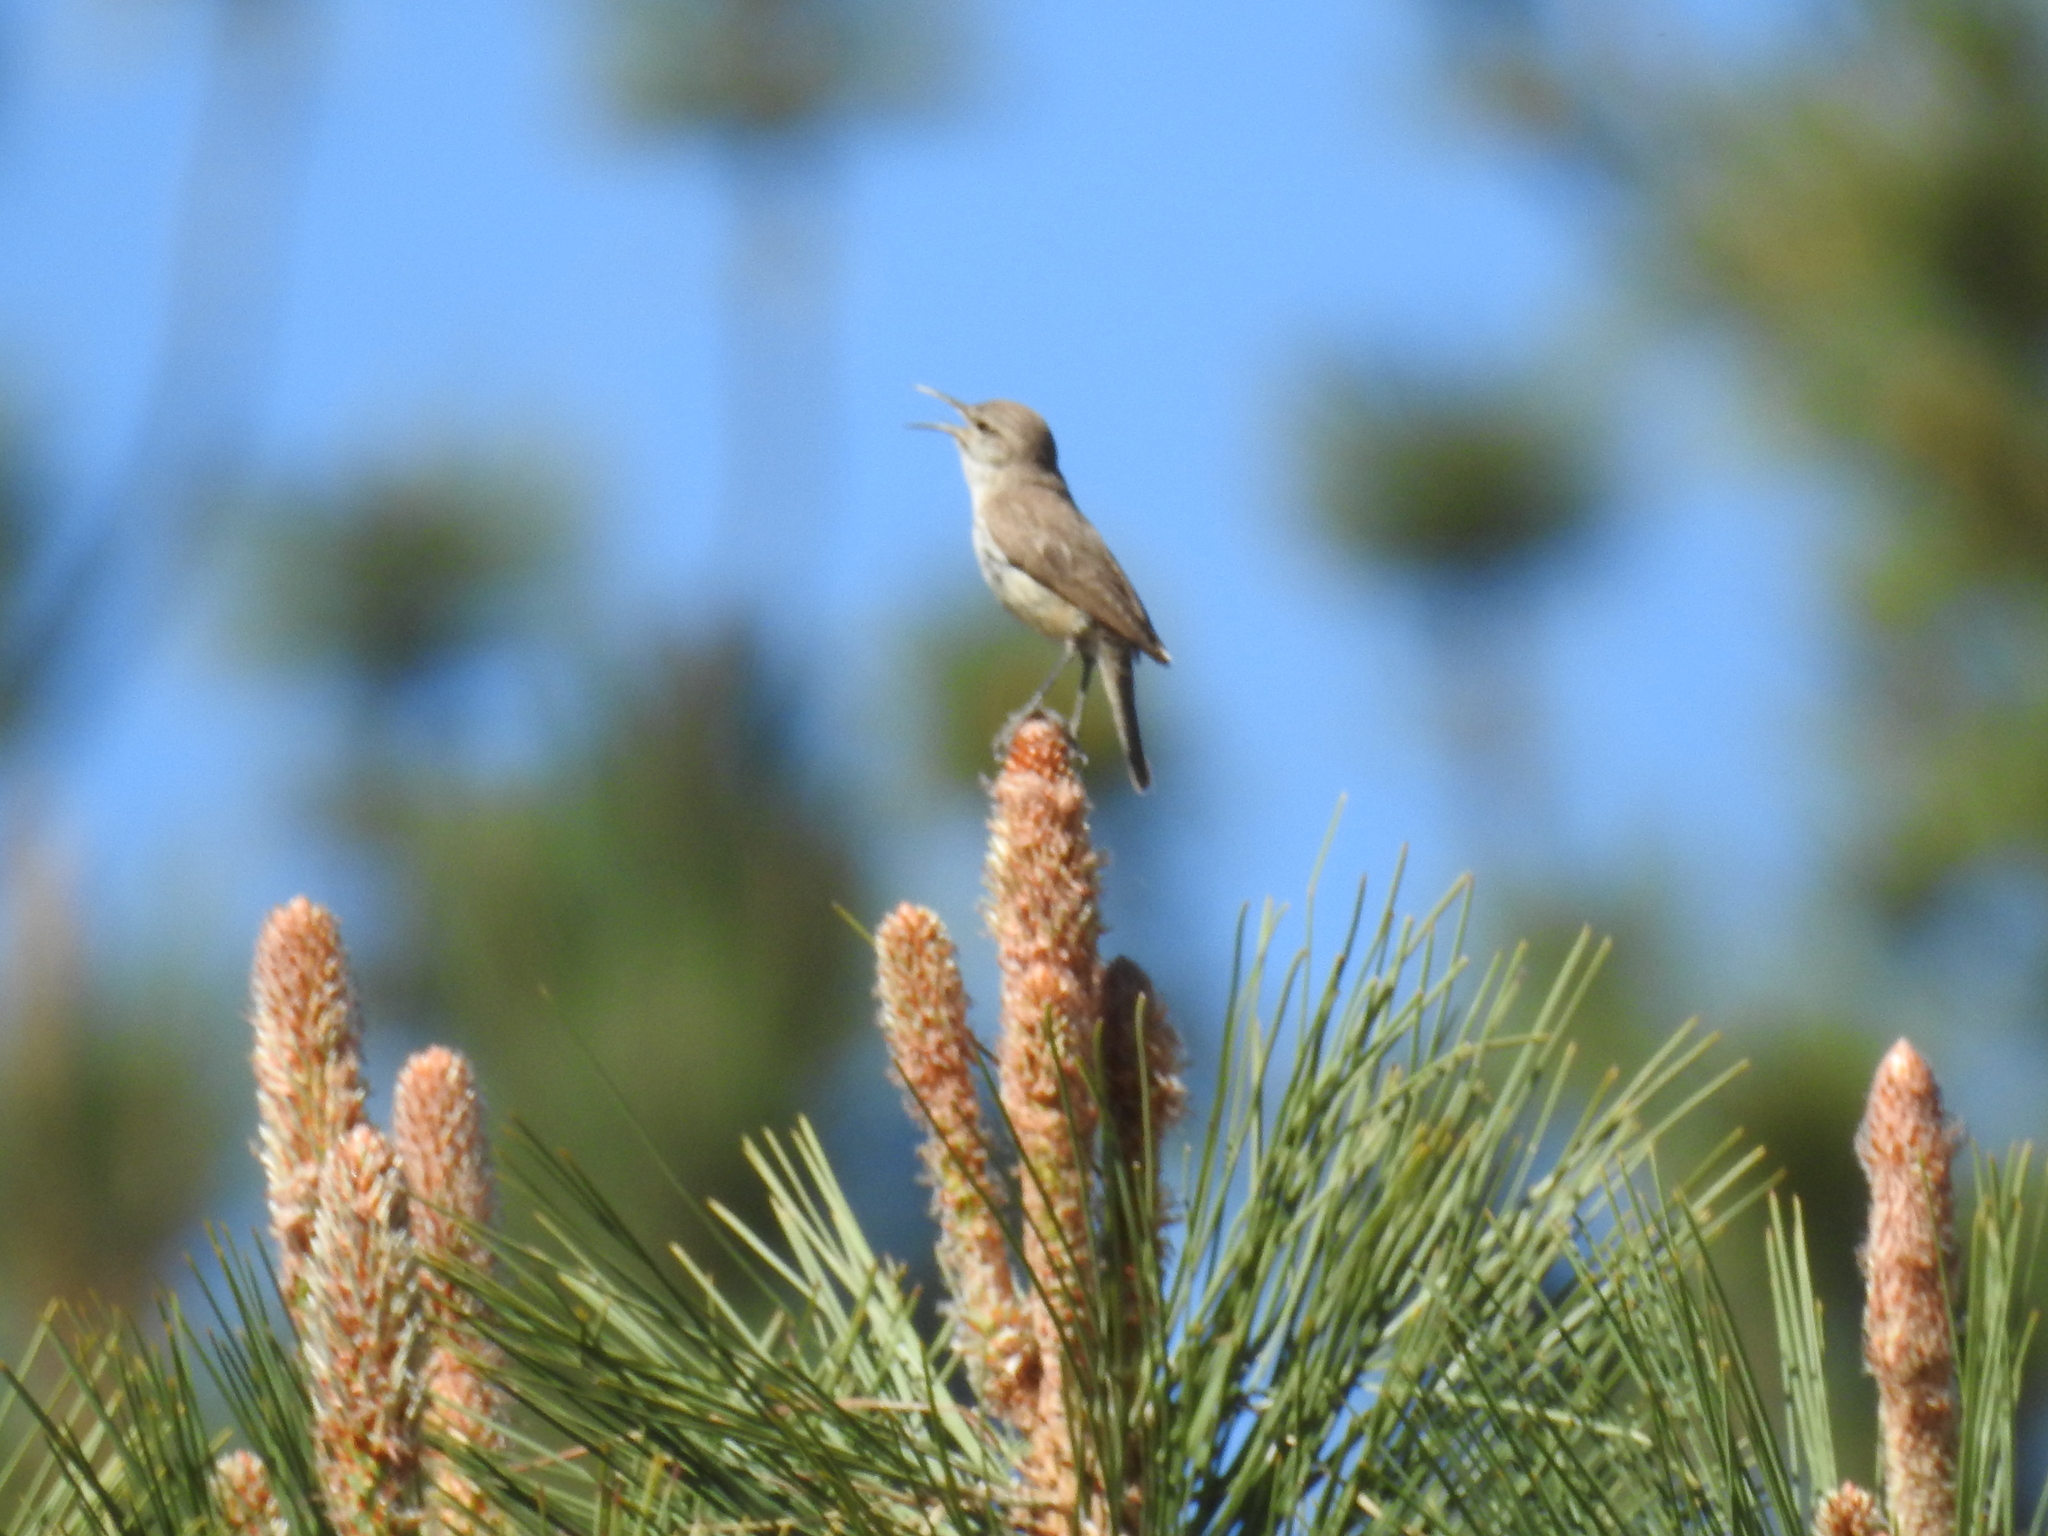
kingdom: Animalia
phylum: Chordata
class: Aves
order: Passeriformes
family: Troglodytidae
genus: Salpinctes
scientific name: Salpinctes obsoletus
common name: Rock wren
